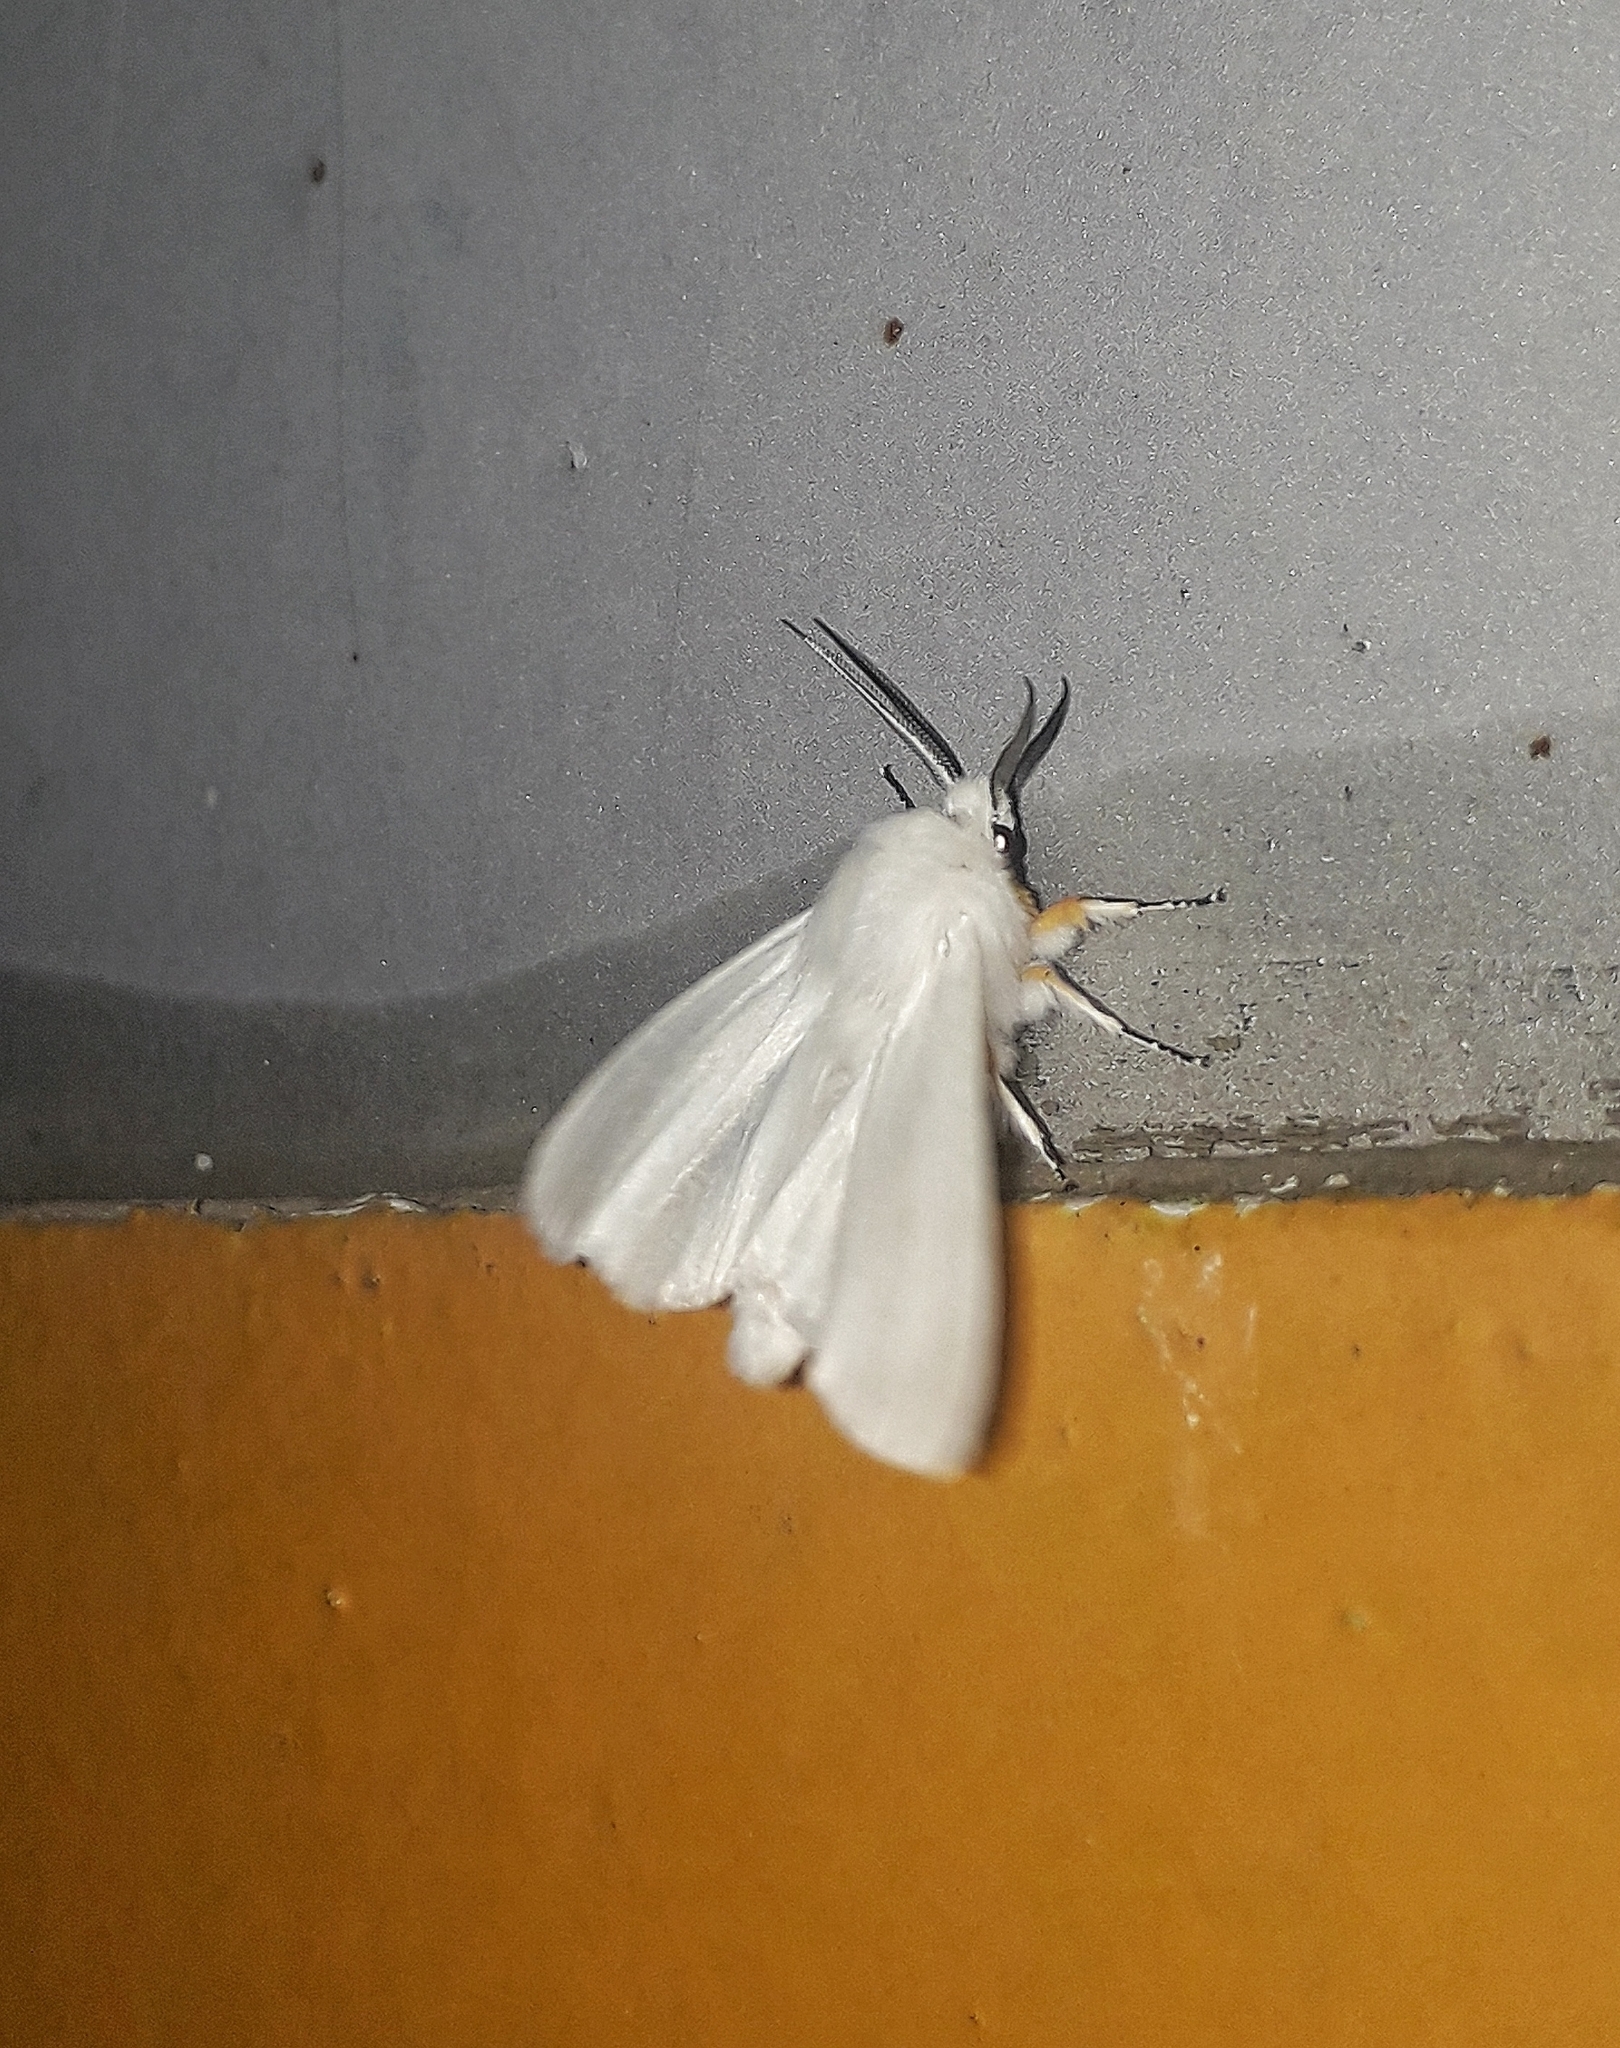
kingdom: Animalia
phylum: Arthropoda
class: Insecta
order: Lepidoptera
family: Erebidae
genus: Hyphantria
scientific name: Hyphantria cunea
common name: American white moth
